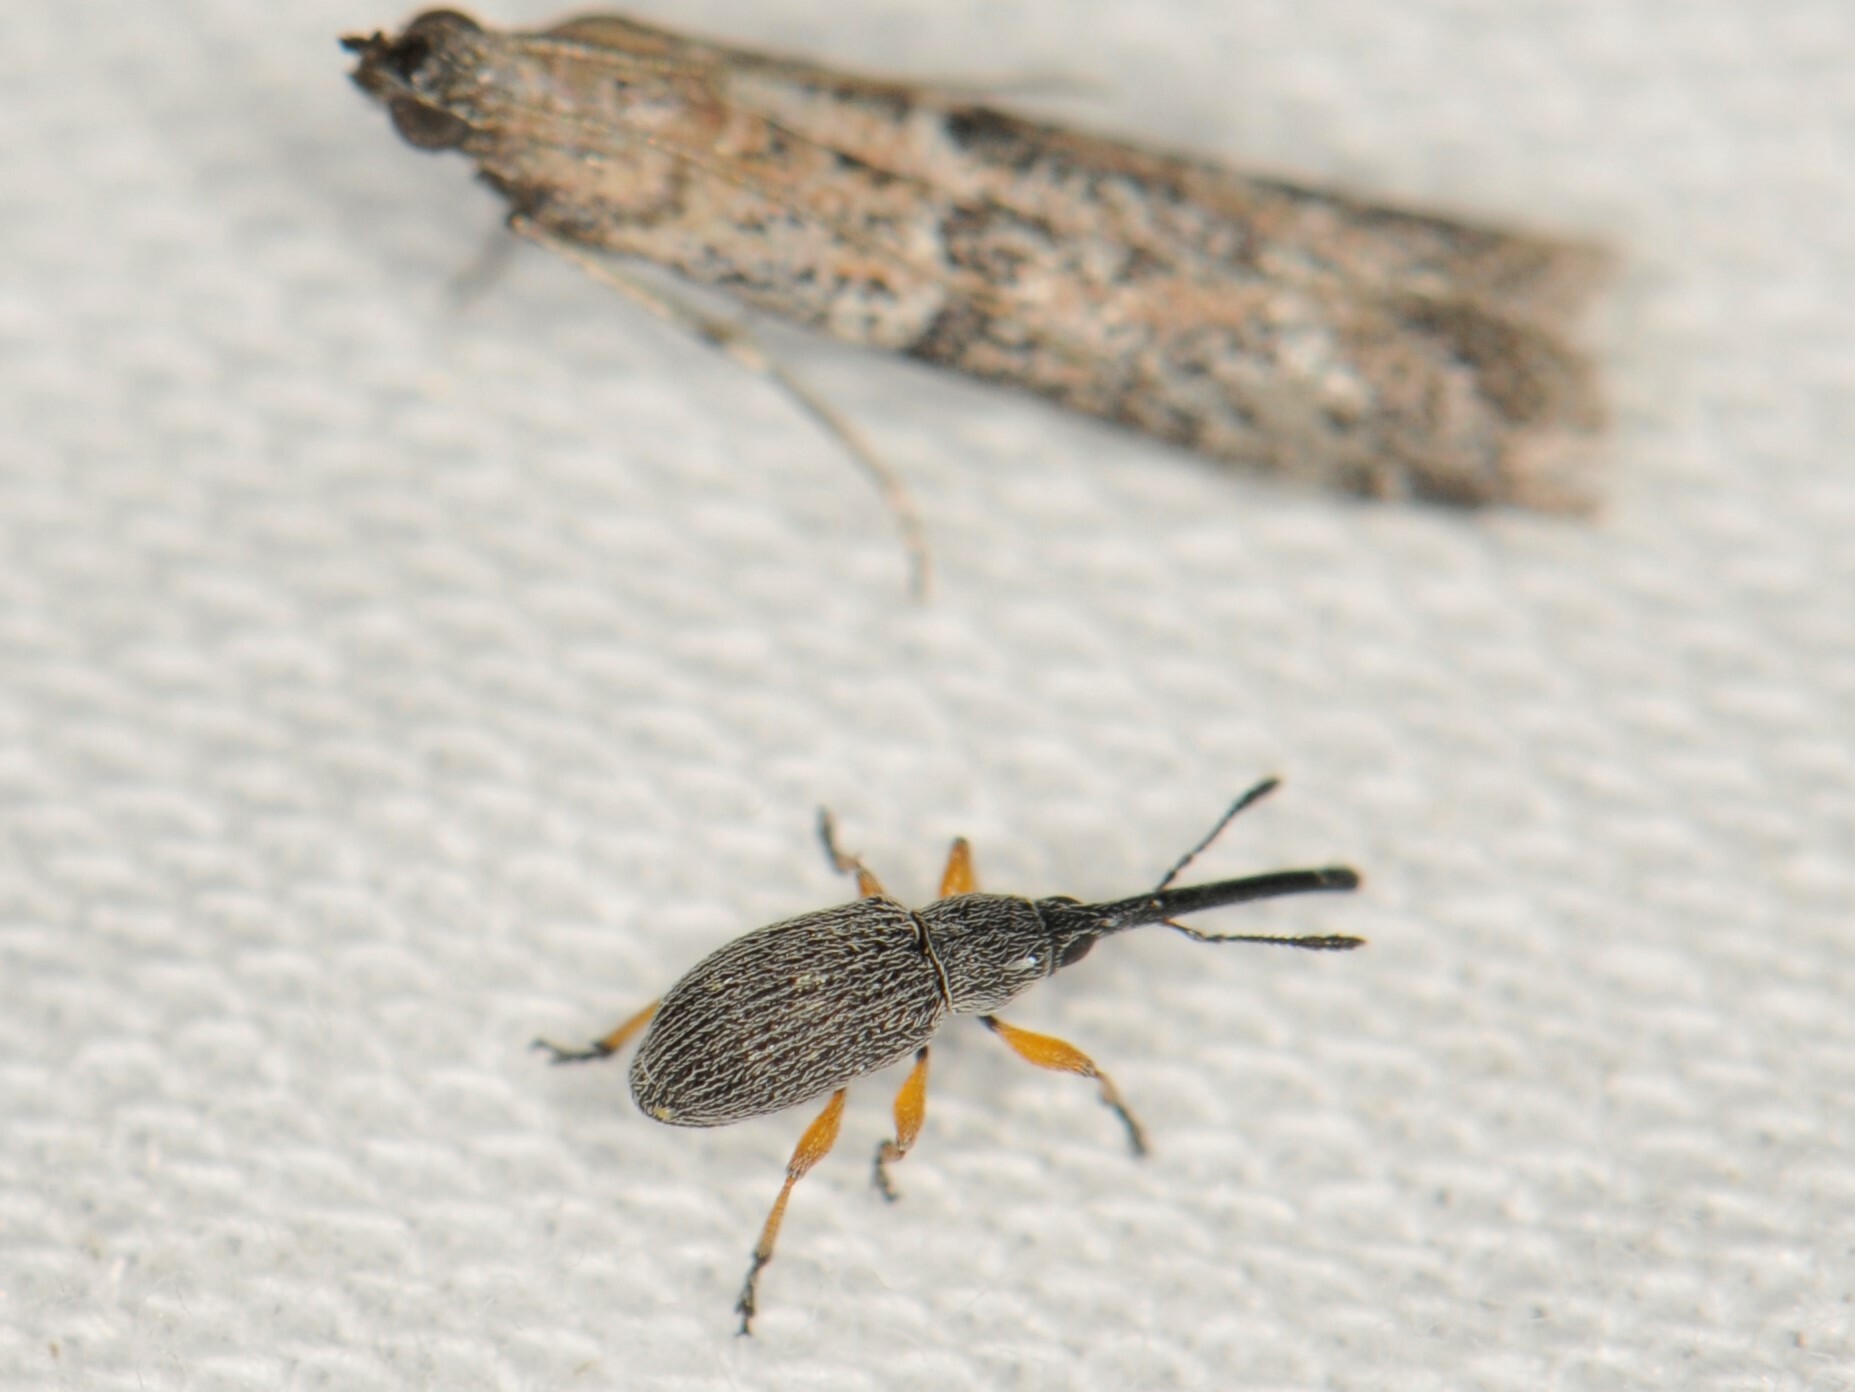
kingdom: Animalia
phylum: Arthropoda
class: Insecta
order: Coleoptera
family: Brentidae
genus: Rhopalapion
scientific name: Rhopalapion longirostre
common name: Hollyhock weevil
